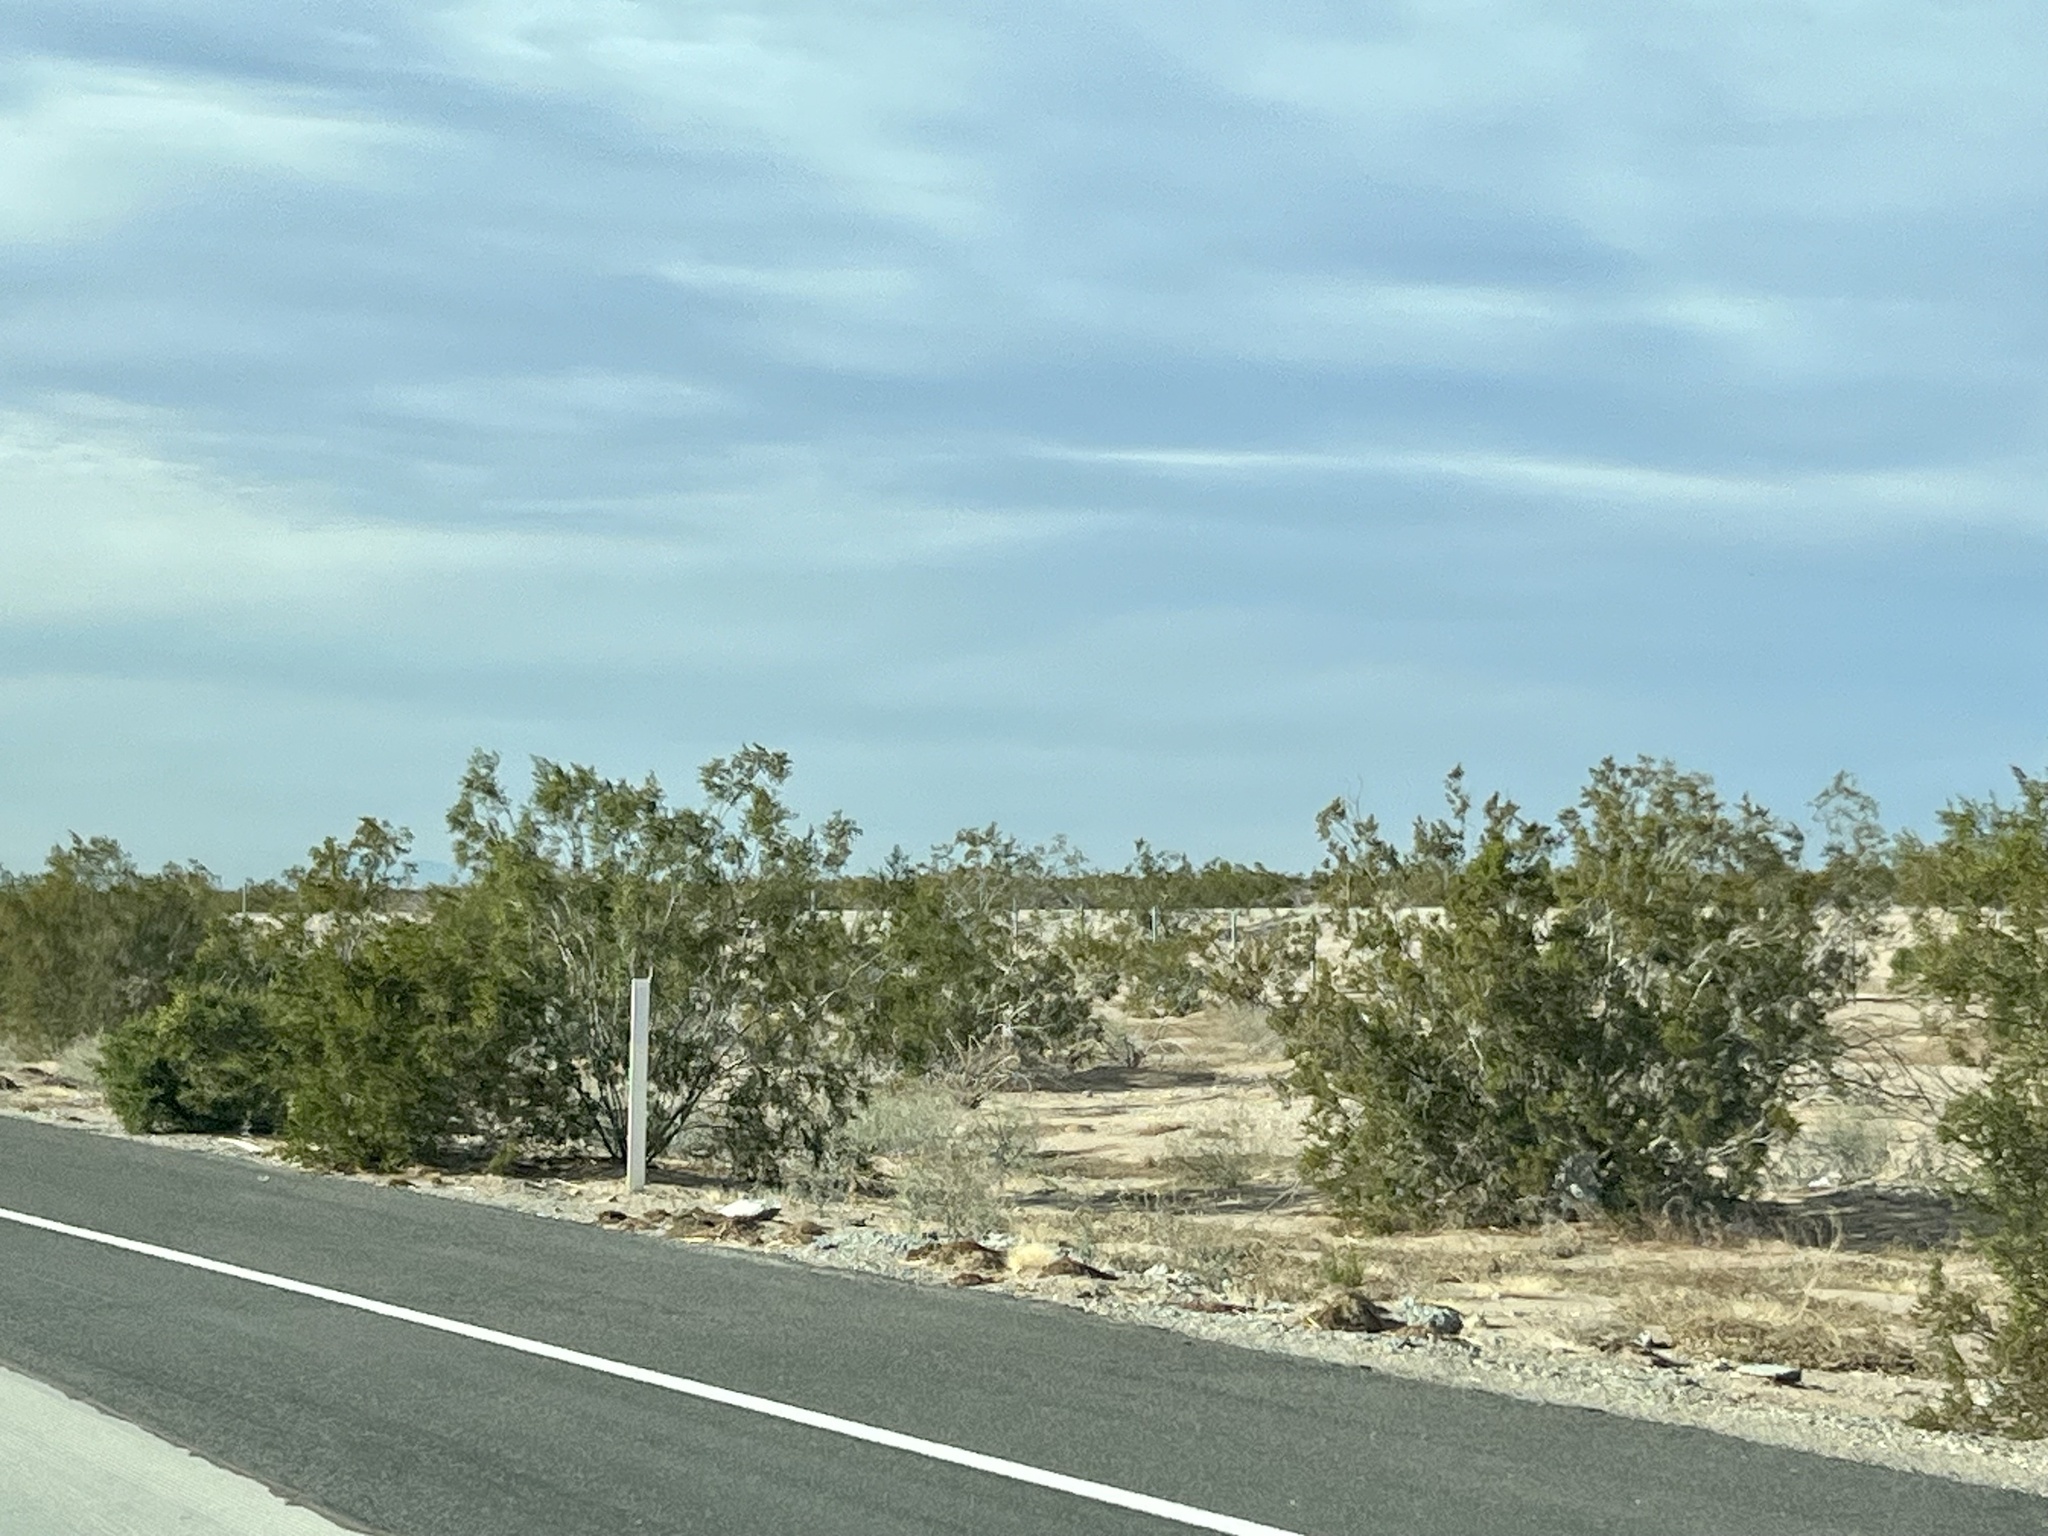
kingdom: Plantae
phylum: Tracheophyta
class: Magnoliopsida
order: Zygophyllales
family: Zygophyllaceae
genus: Larrea
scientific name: Larrea tridentata
